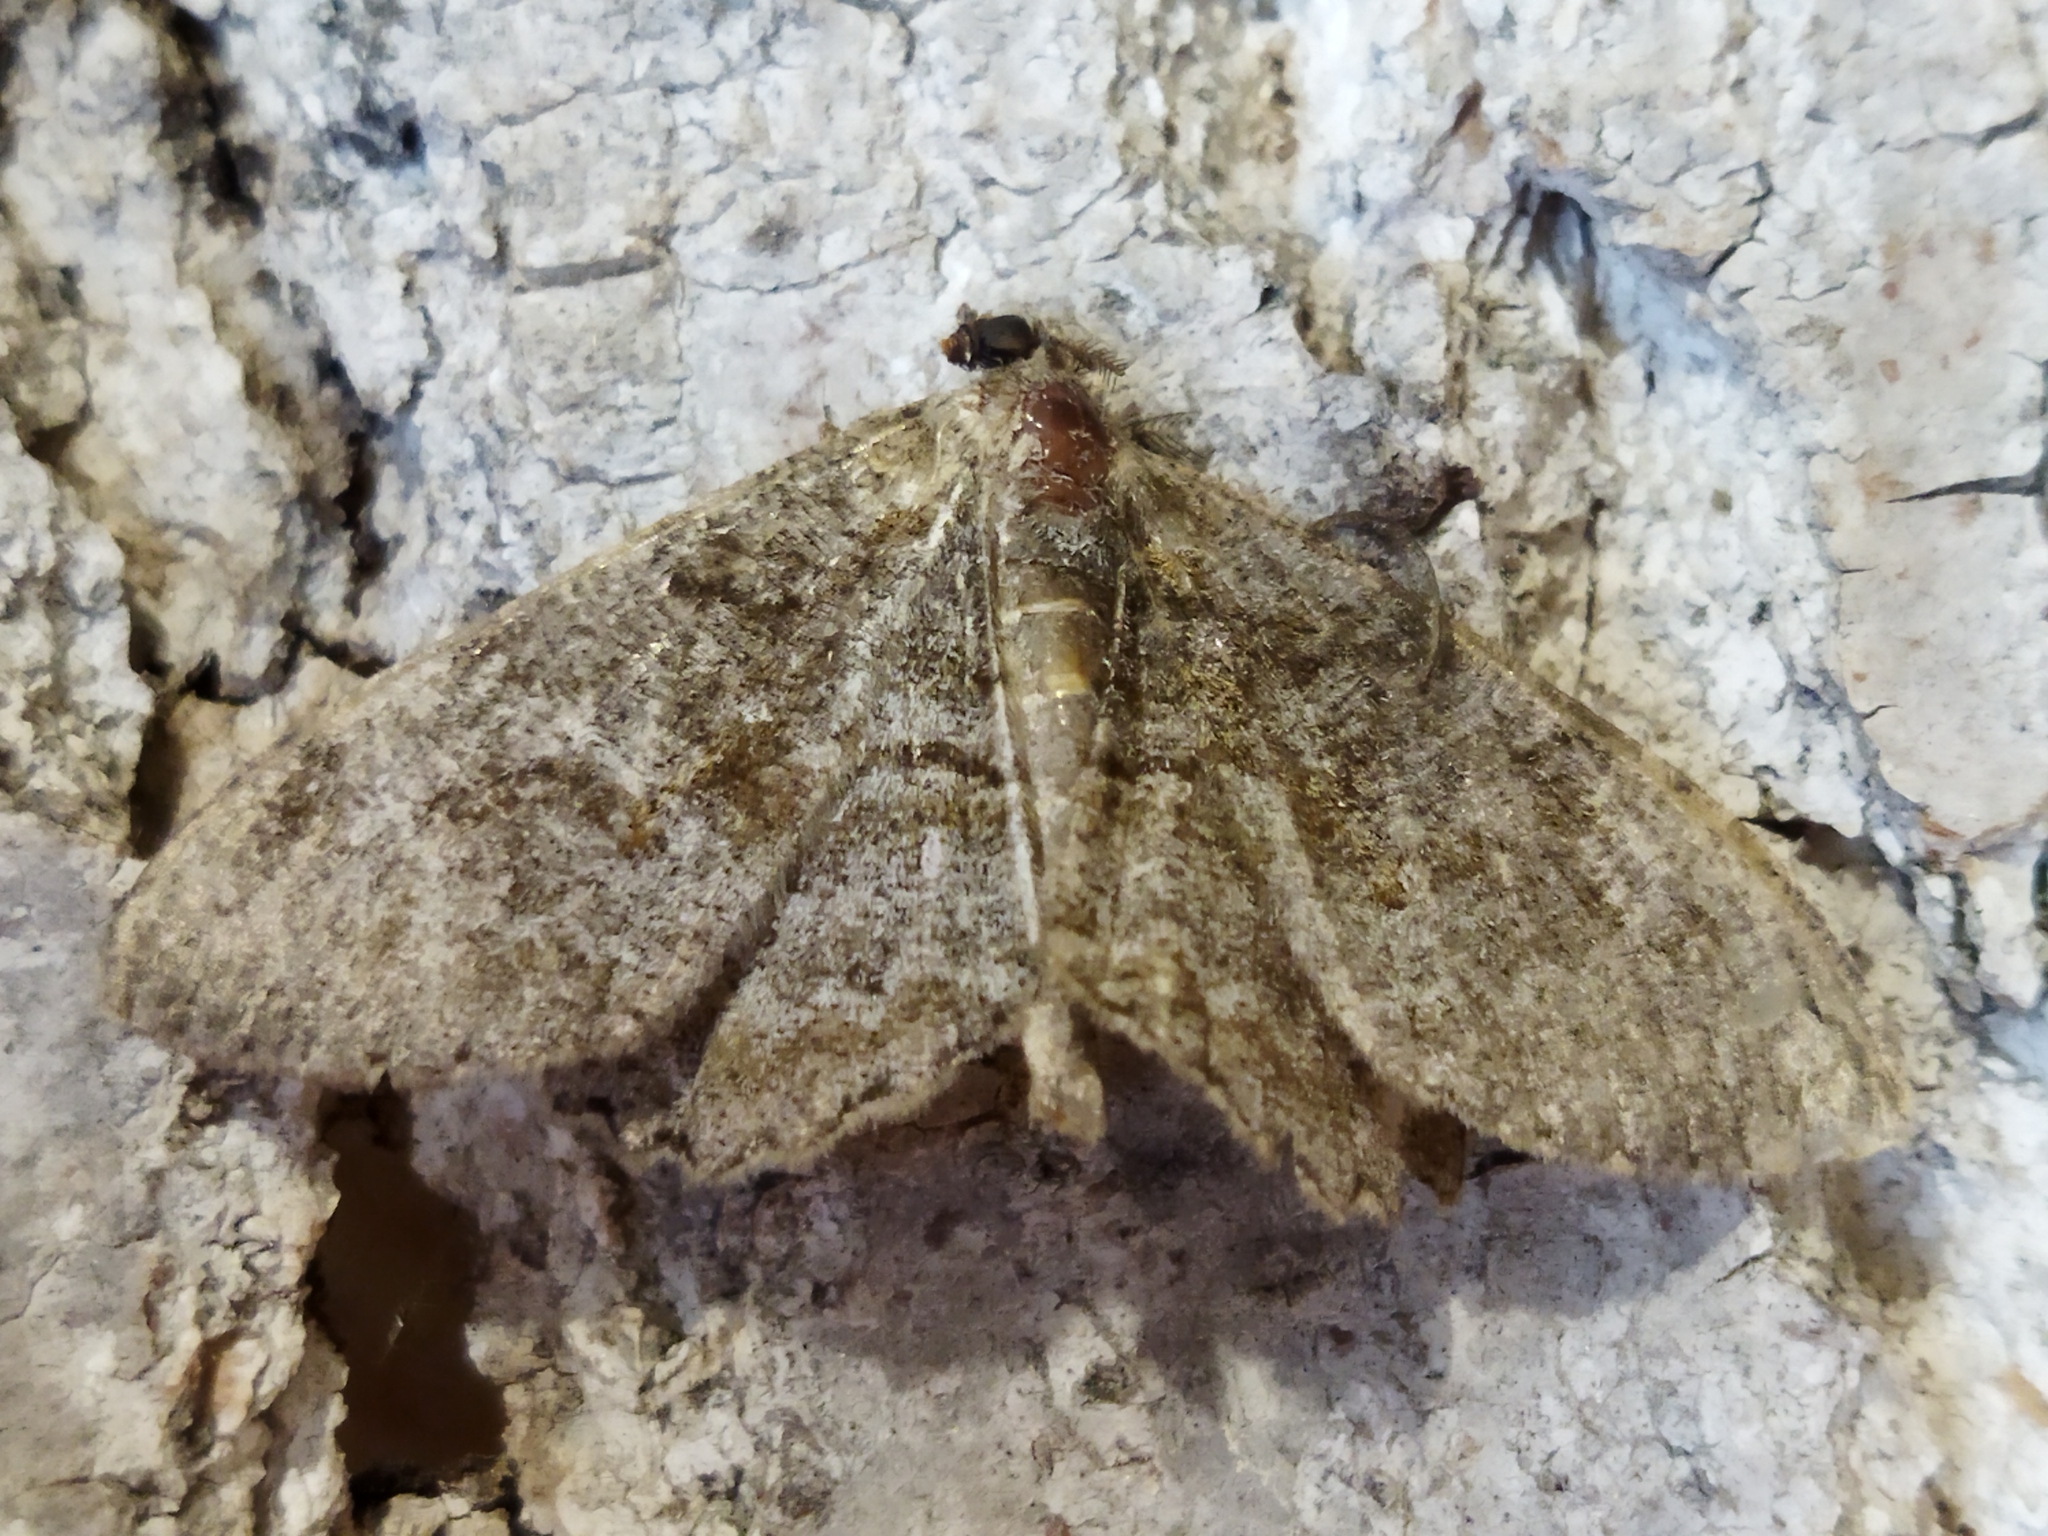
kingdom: Animalia
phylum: Arthropoda
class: Insecta
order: Lepidoptera
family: Geometridae
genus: Alcis
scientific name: Alcis repandata
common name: Mottled beauty
